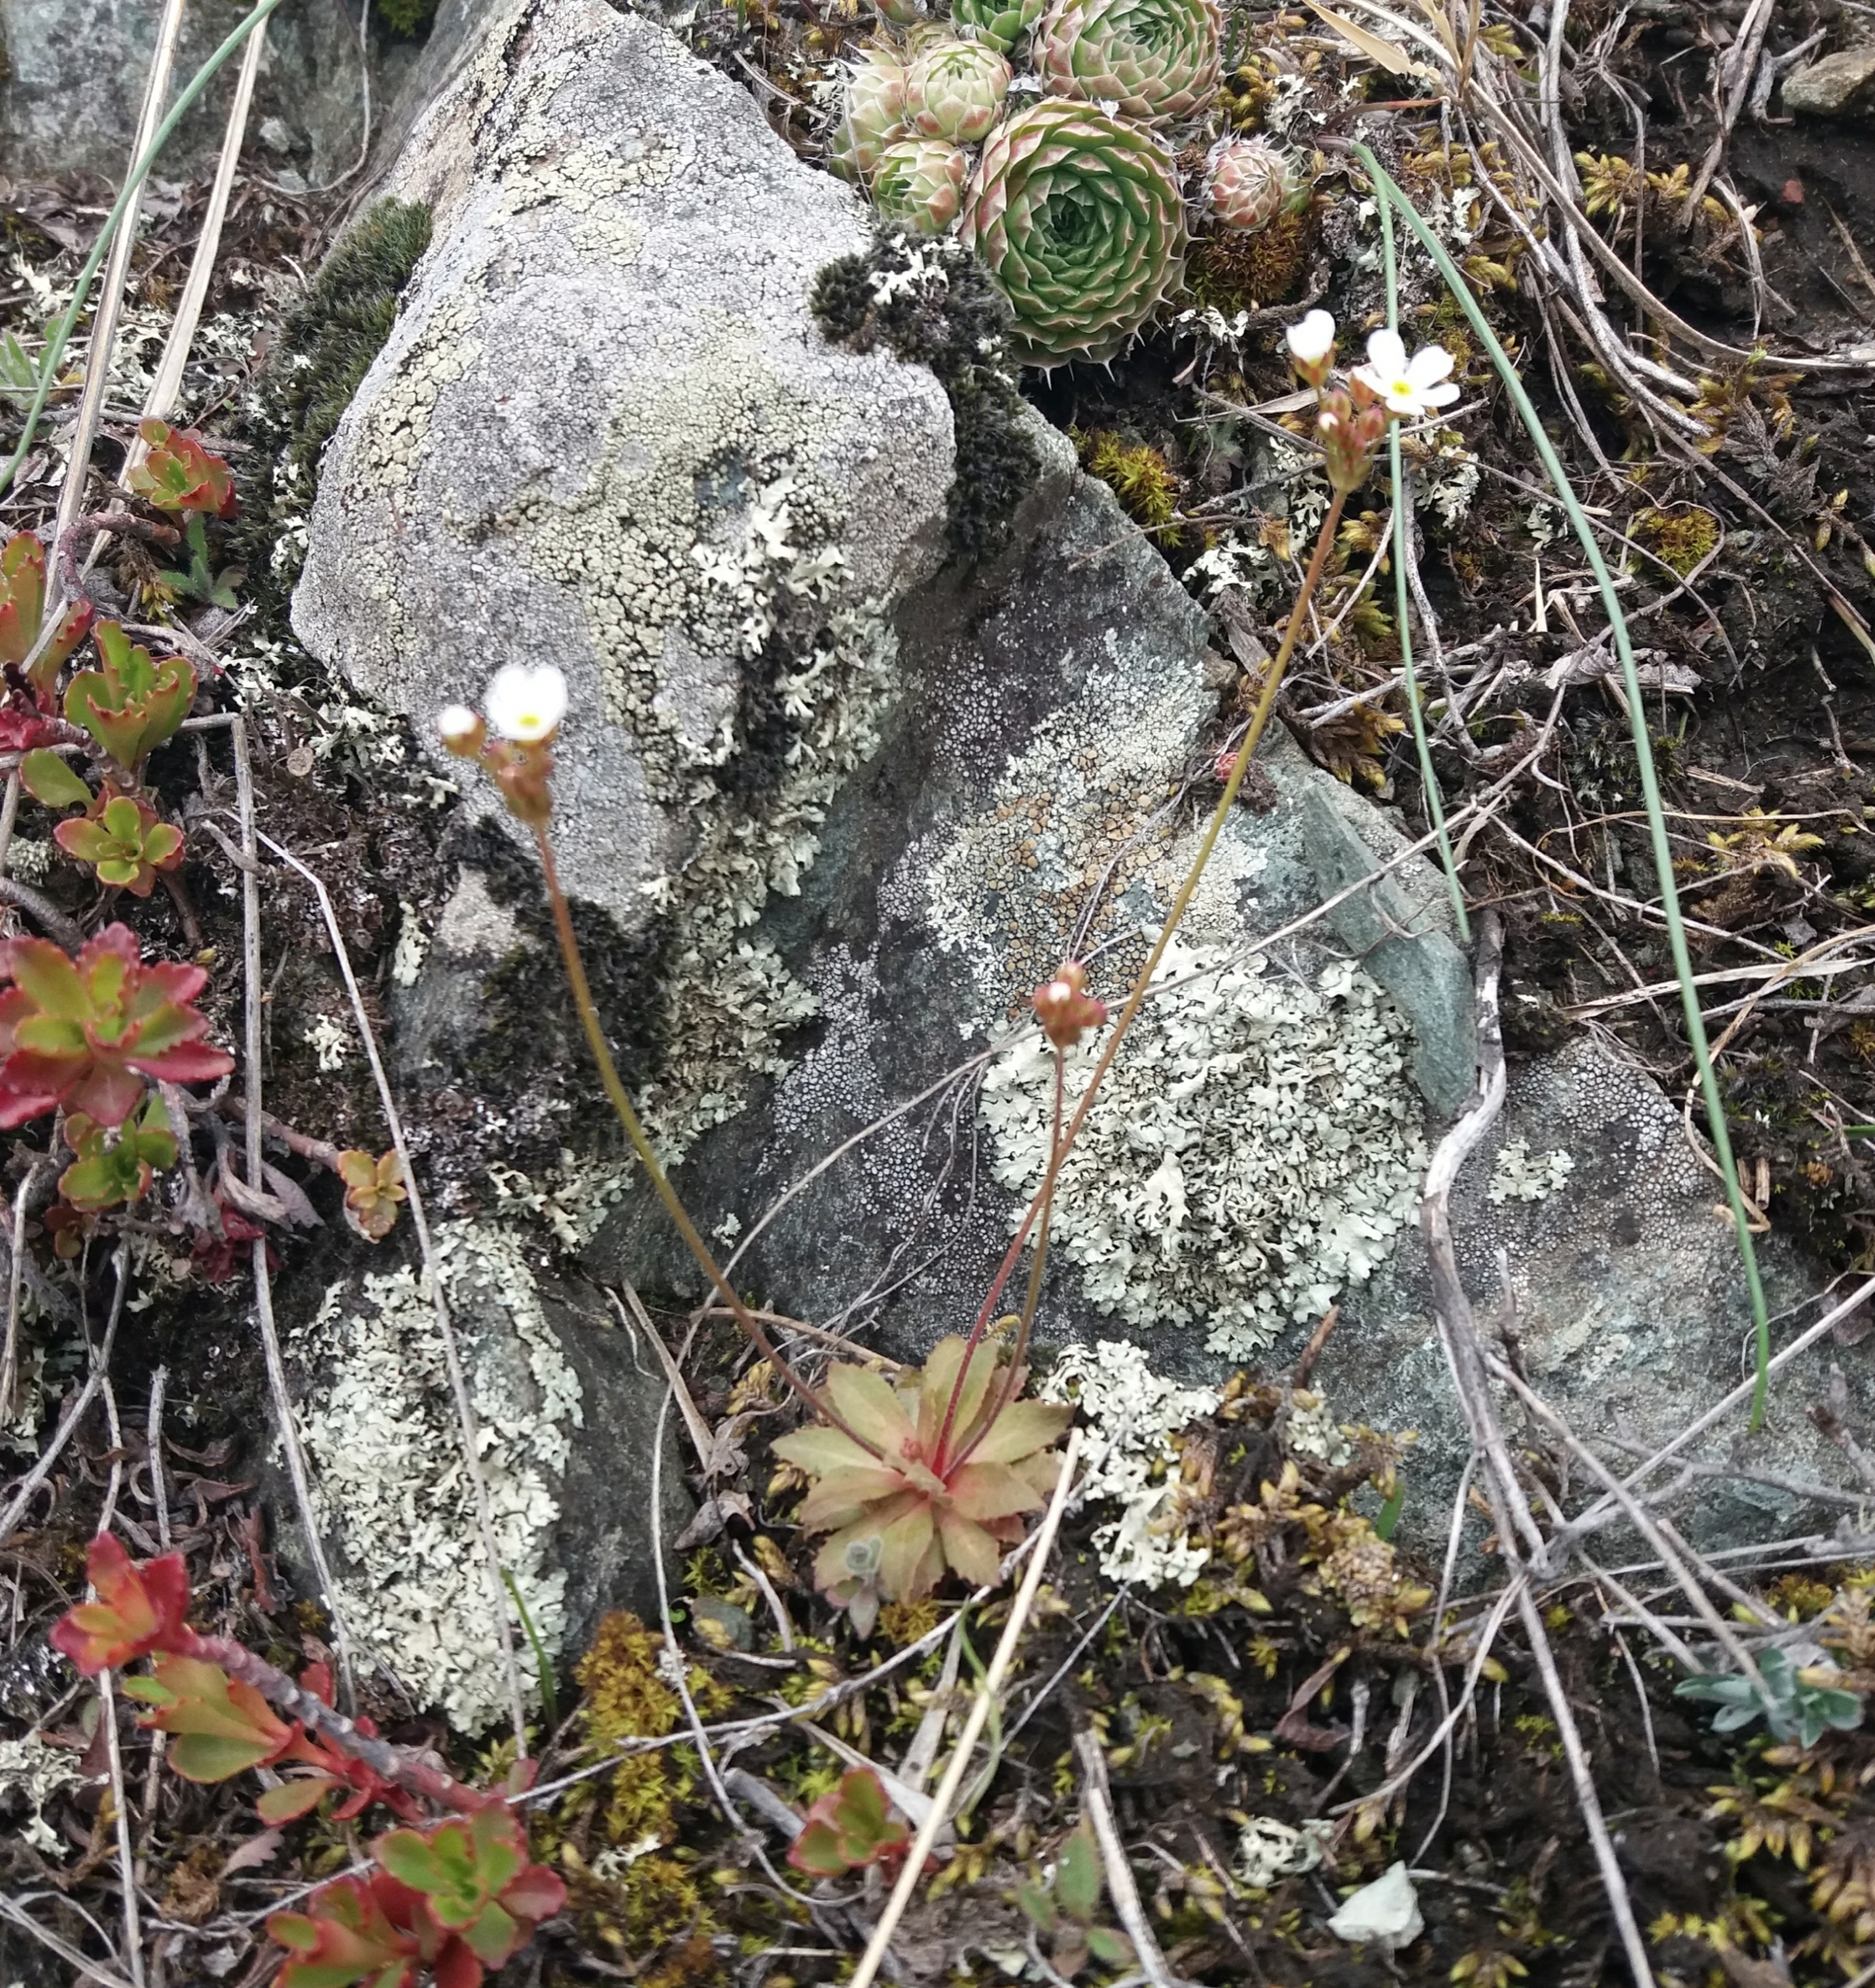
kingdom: Plantae
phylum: Tracheophyta
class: Magnoliopsida
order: Ericales
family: Primulaceae
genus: Androsace
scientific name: Androsace lactiflora
